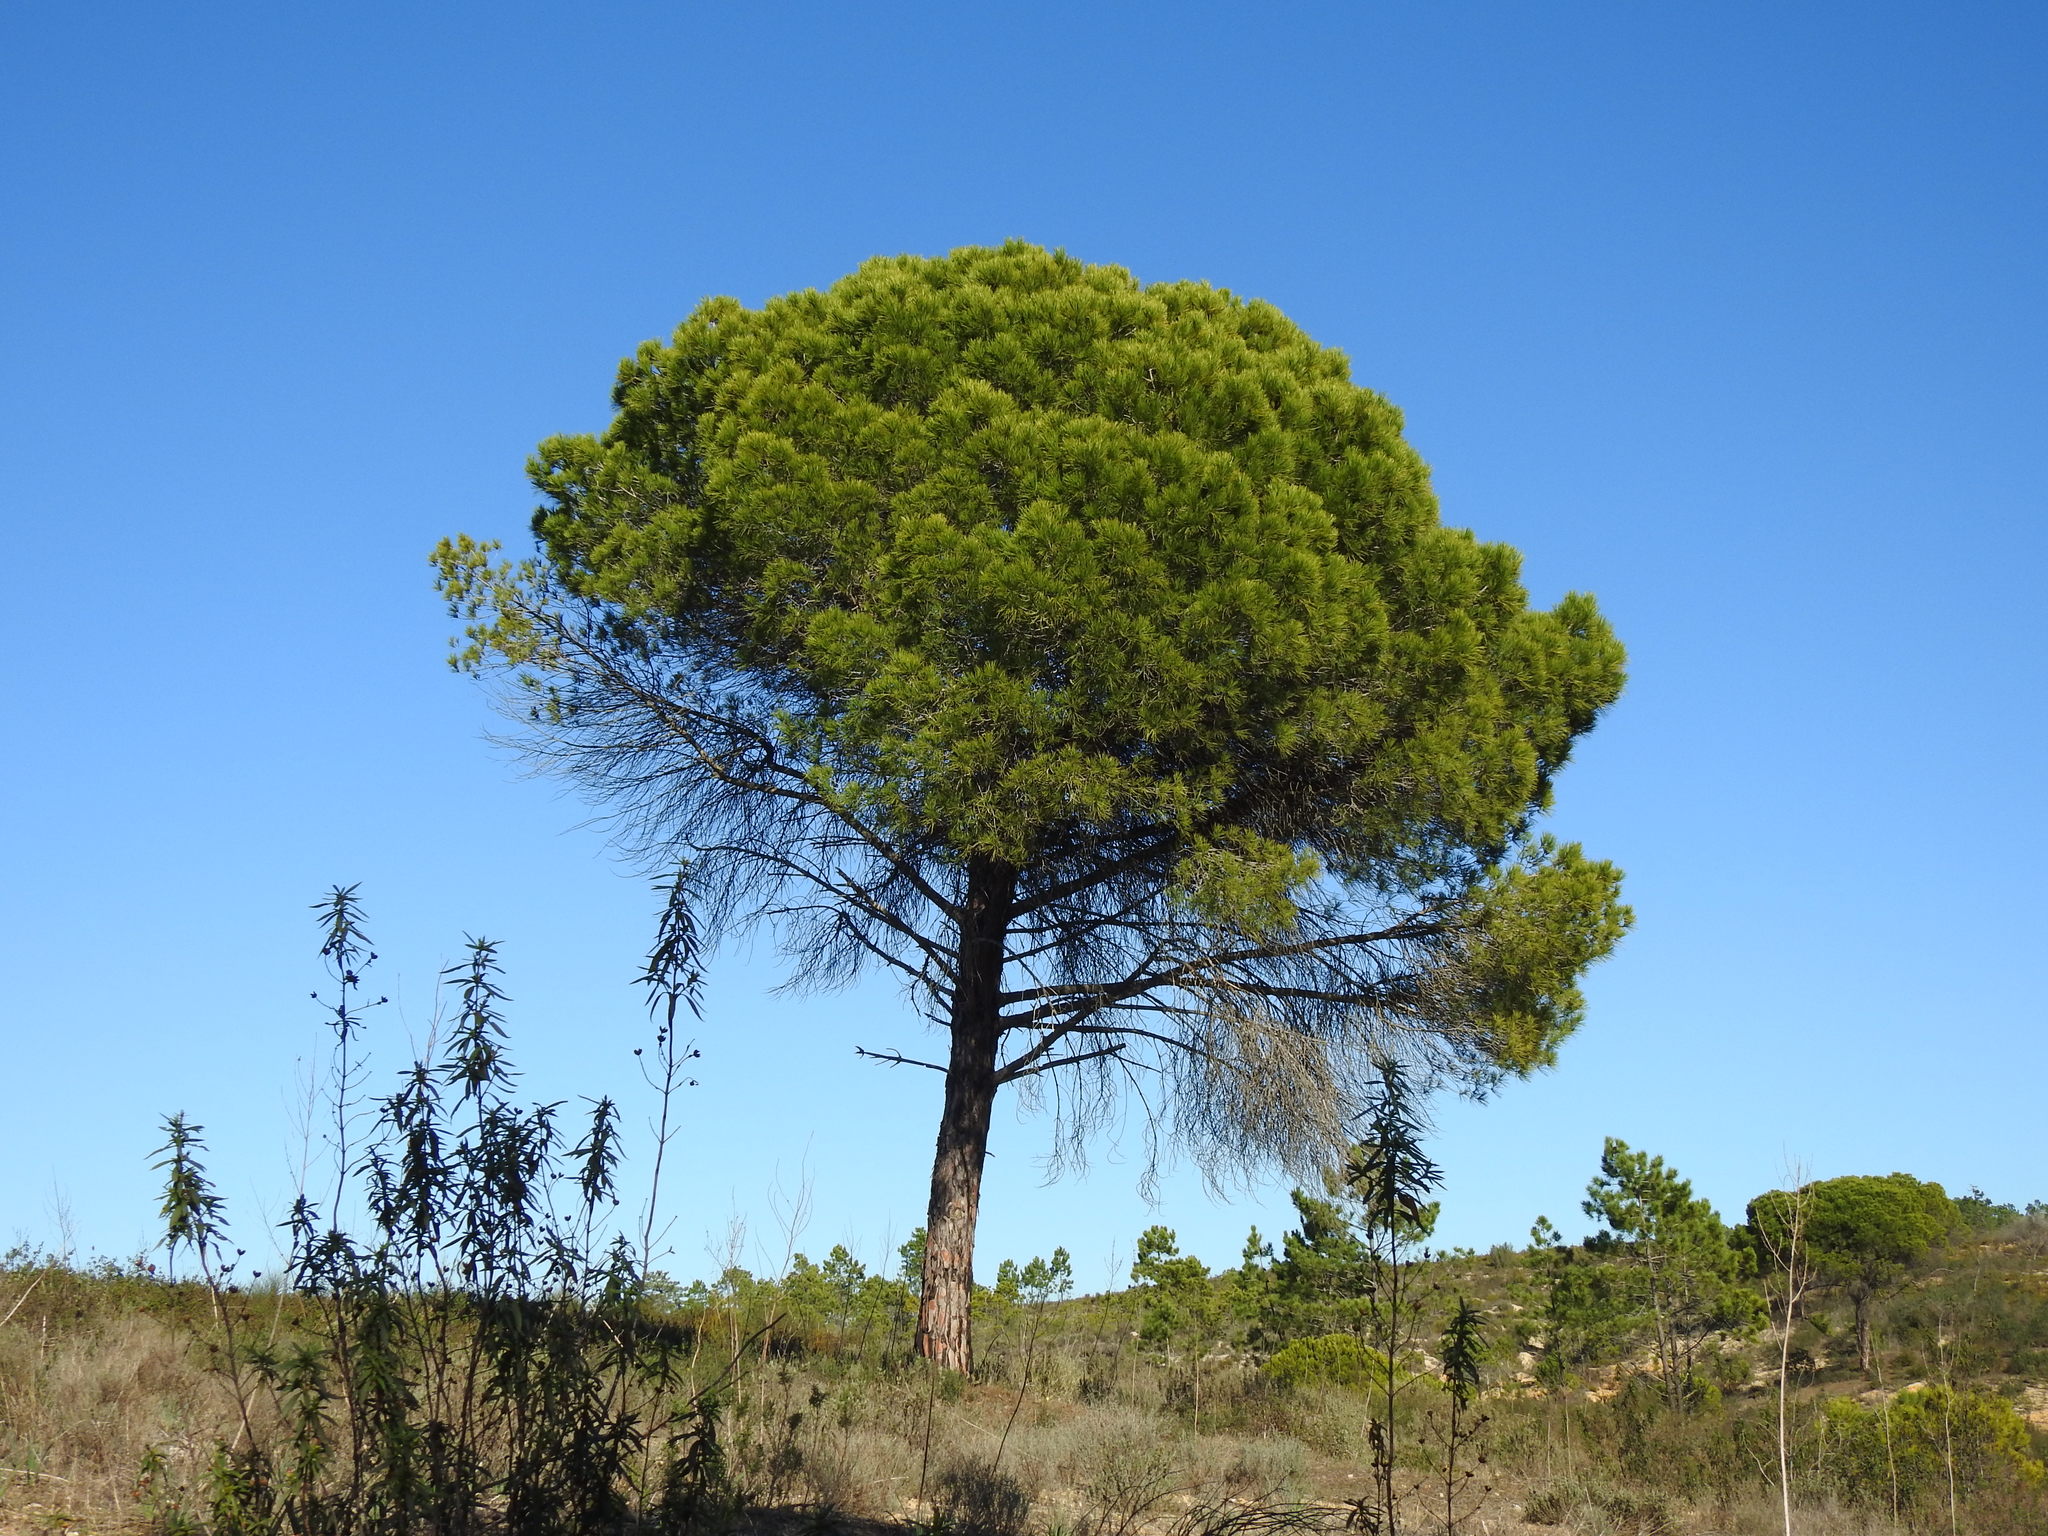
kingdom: Plantae
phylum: Tracheophyta
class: Pinopsida
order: Pinales
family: Pinaceae
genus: Pinus
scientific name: Pinus pinea
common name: Italian stone pine
